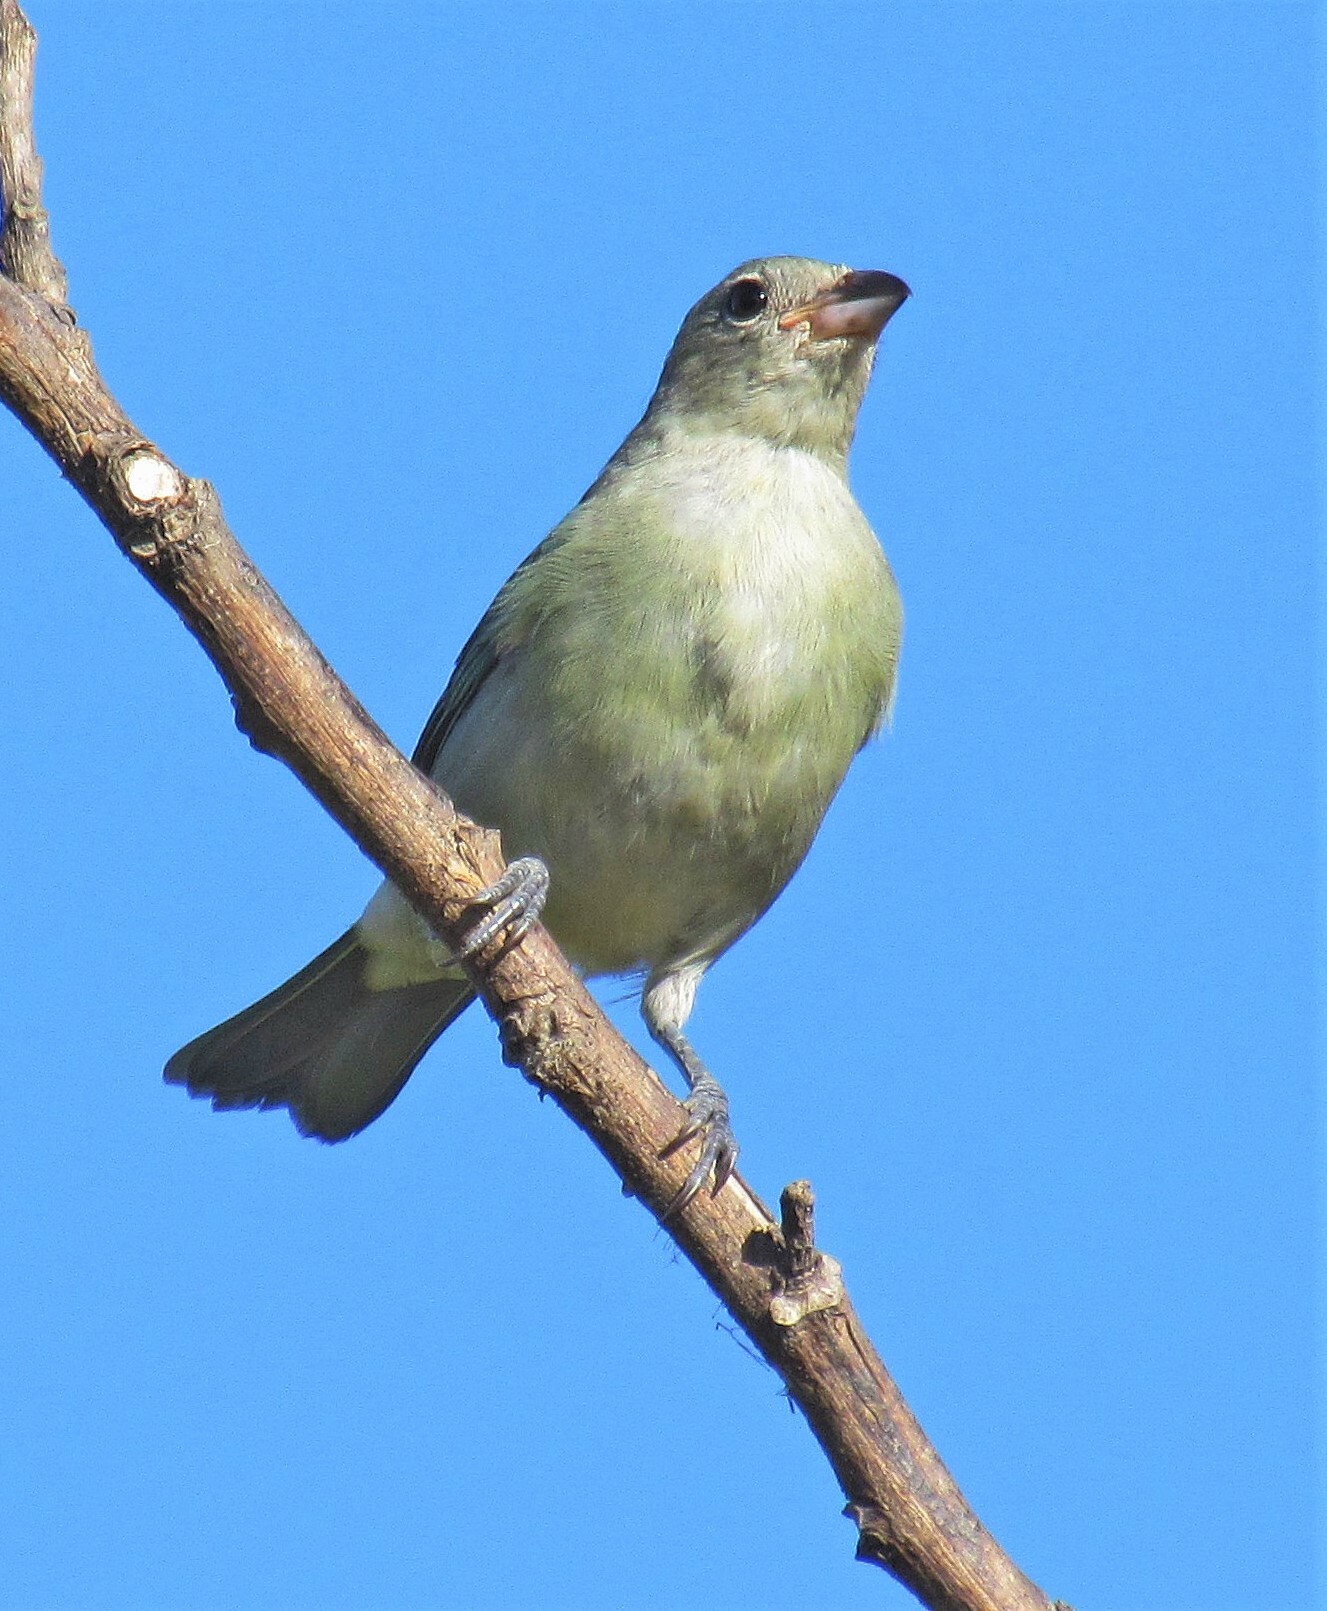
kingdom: Animalia
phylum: Chordata
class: Aves
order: Passeriformes
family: Thraupidae
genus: Thraupis
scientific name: Thraupis sayaca
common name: Sayaca tanager
